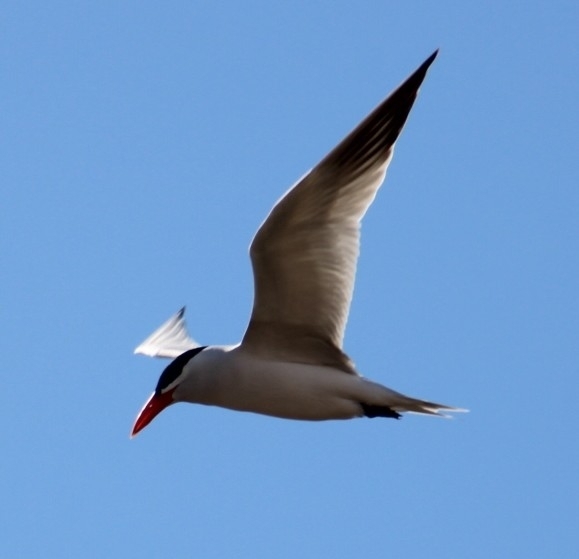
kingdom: Animalia
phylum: Chordata
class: Aves
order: Charadriiformes
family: Laridae
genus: Hydroprogne
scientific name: Hydroprogne caspia
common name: Caspian tern
